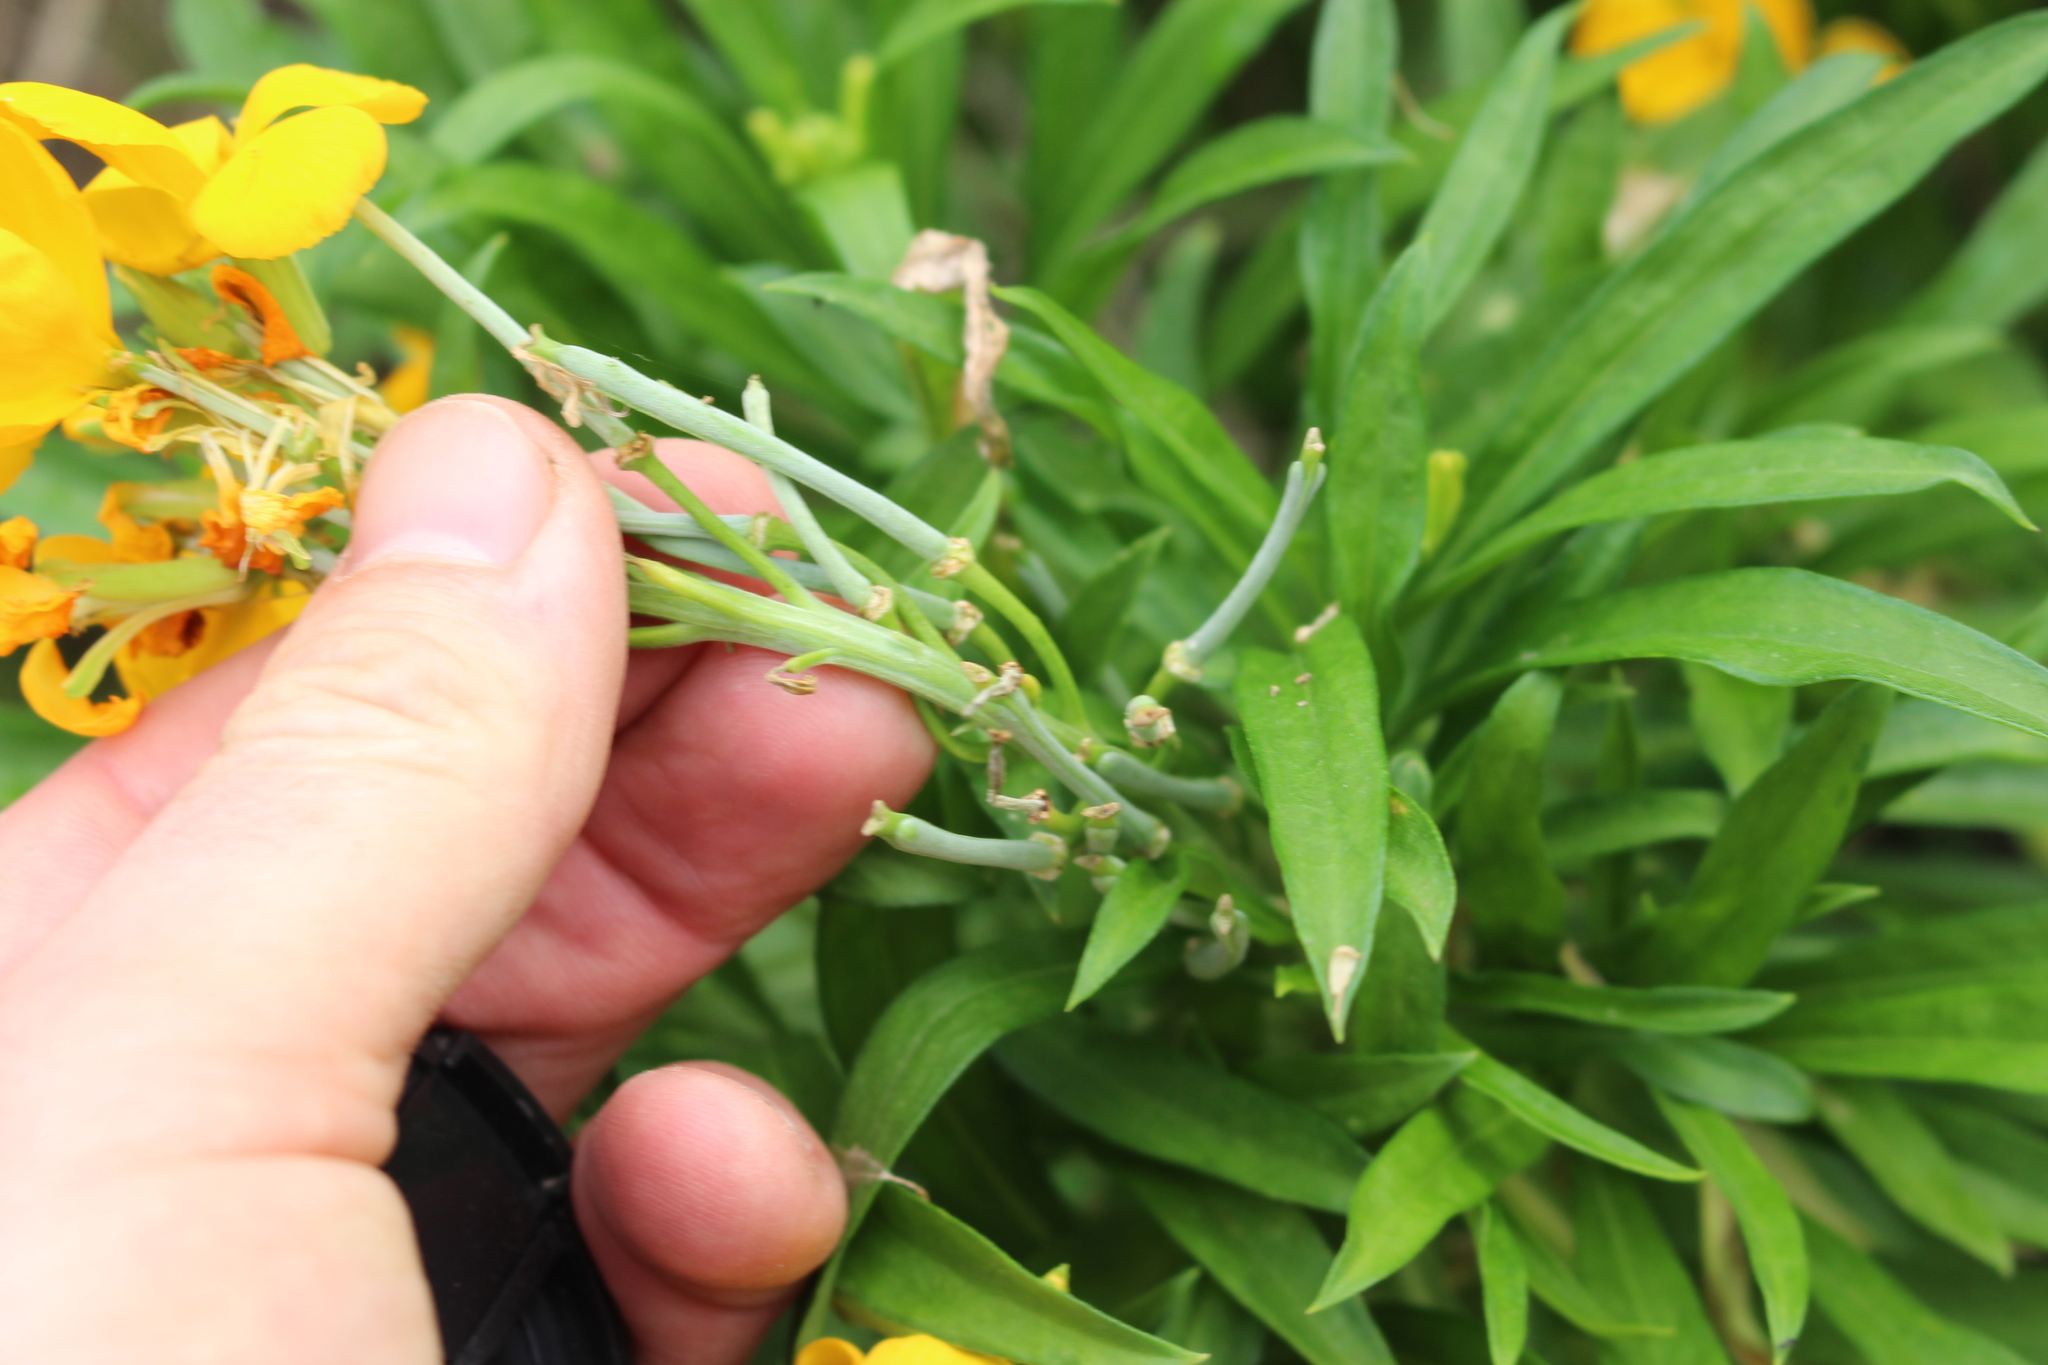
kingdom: Plantae
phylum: Tracheophyta
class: Magnoliopsida
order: Brassicales
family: Brassicaceae
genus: Erysimum
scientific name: Erysimum cheiri
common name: Wallflower
